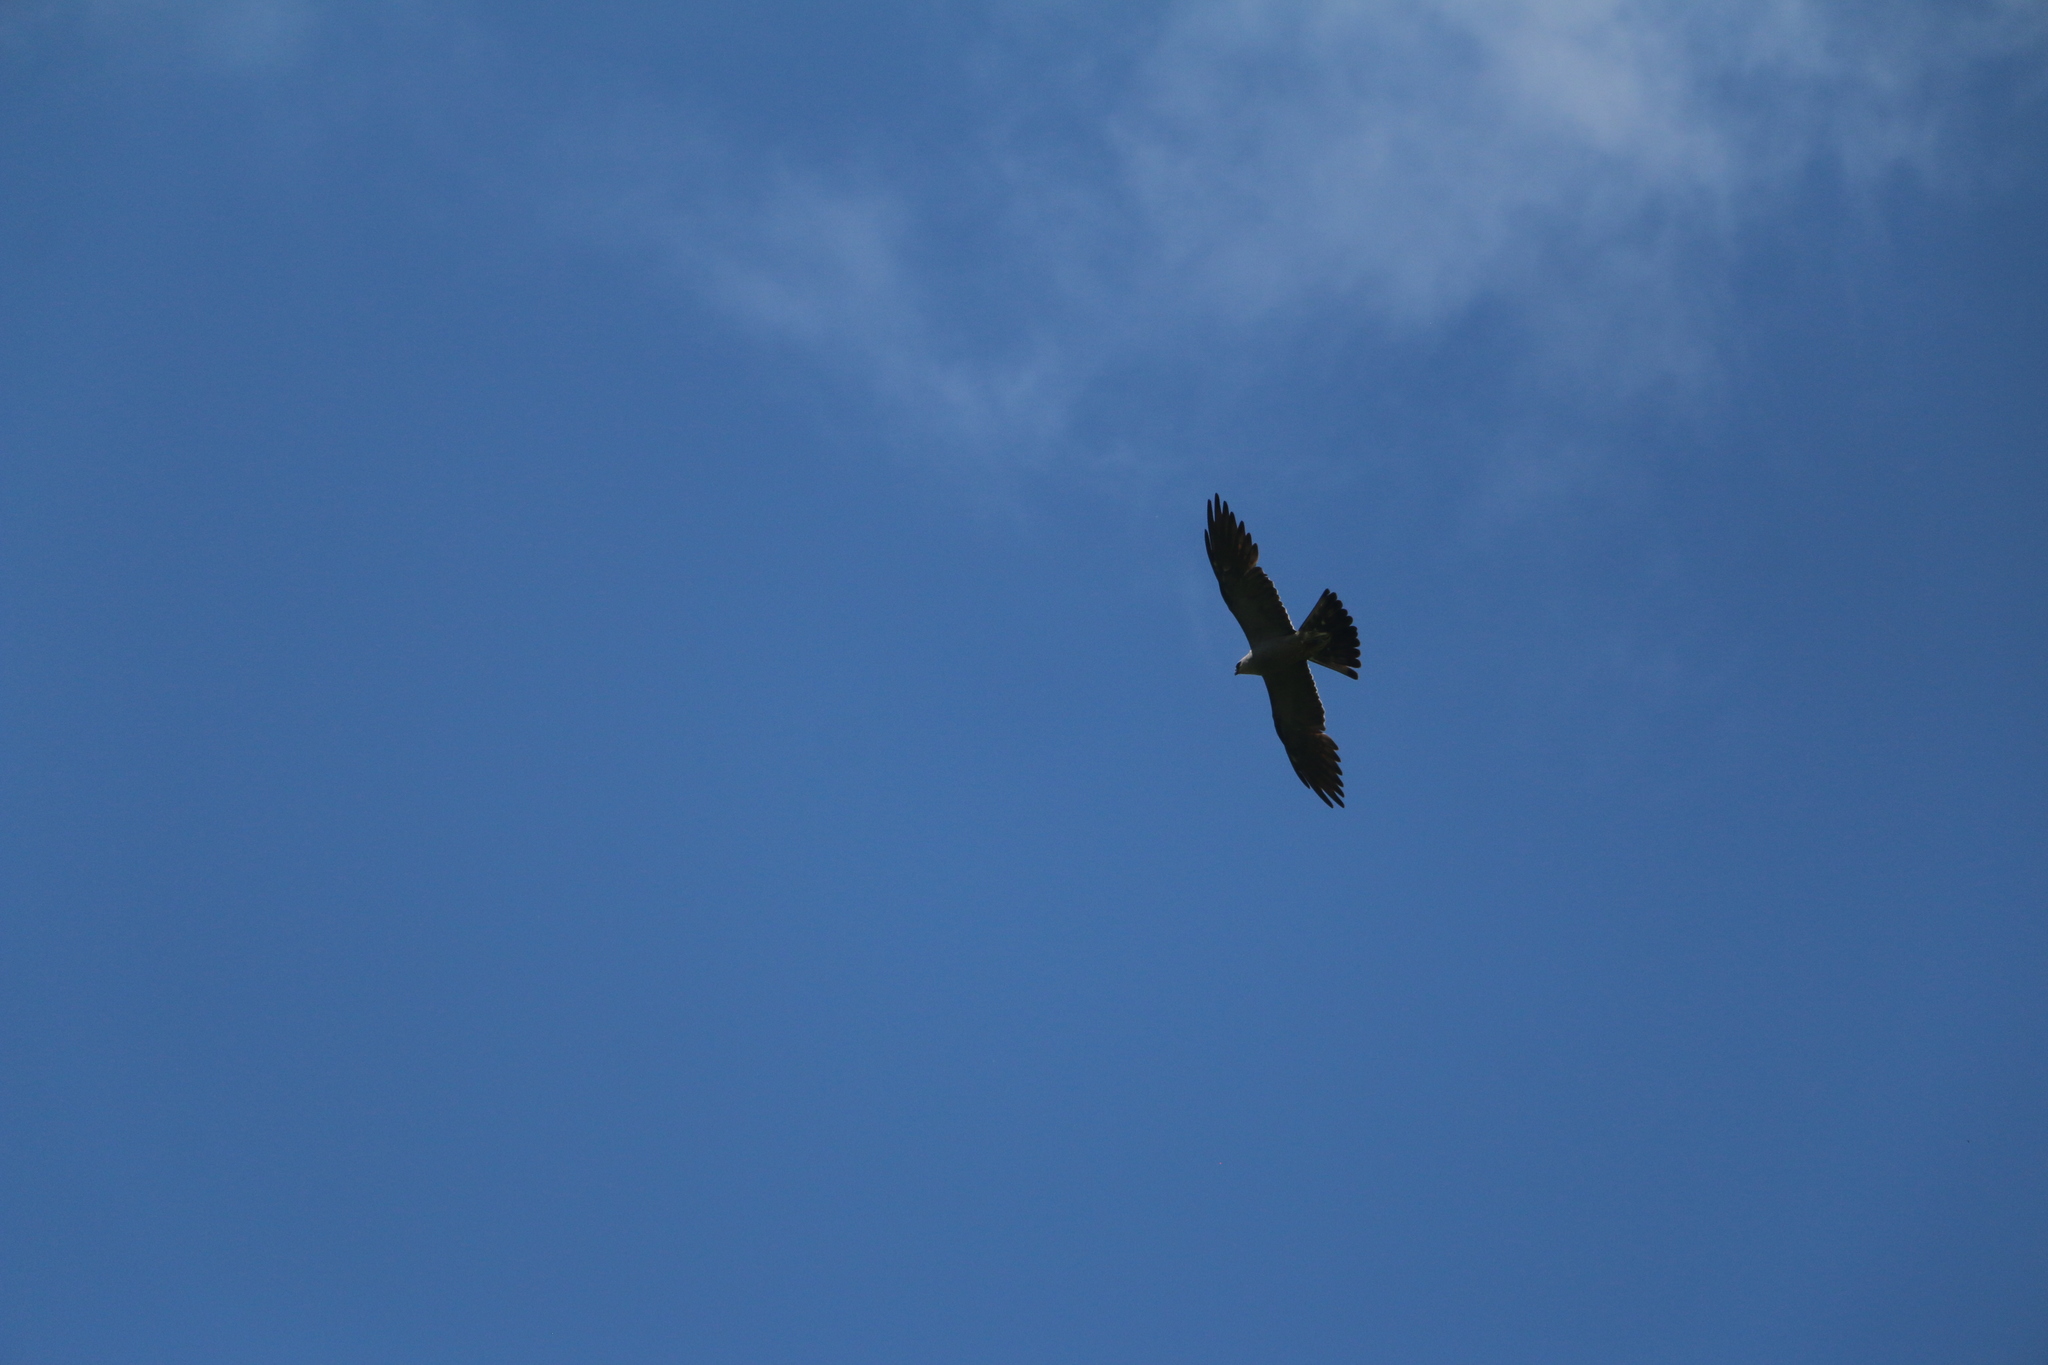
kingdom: Animalia
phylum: Chordata
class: Aves
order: Accipitriformes
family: Accipitridae
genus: Ictinia
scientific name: Ictinia mississippiensis
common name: Mississippi kite
